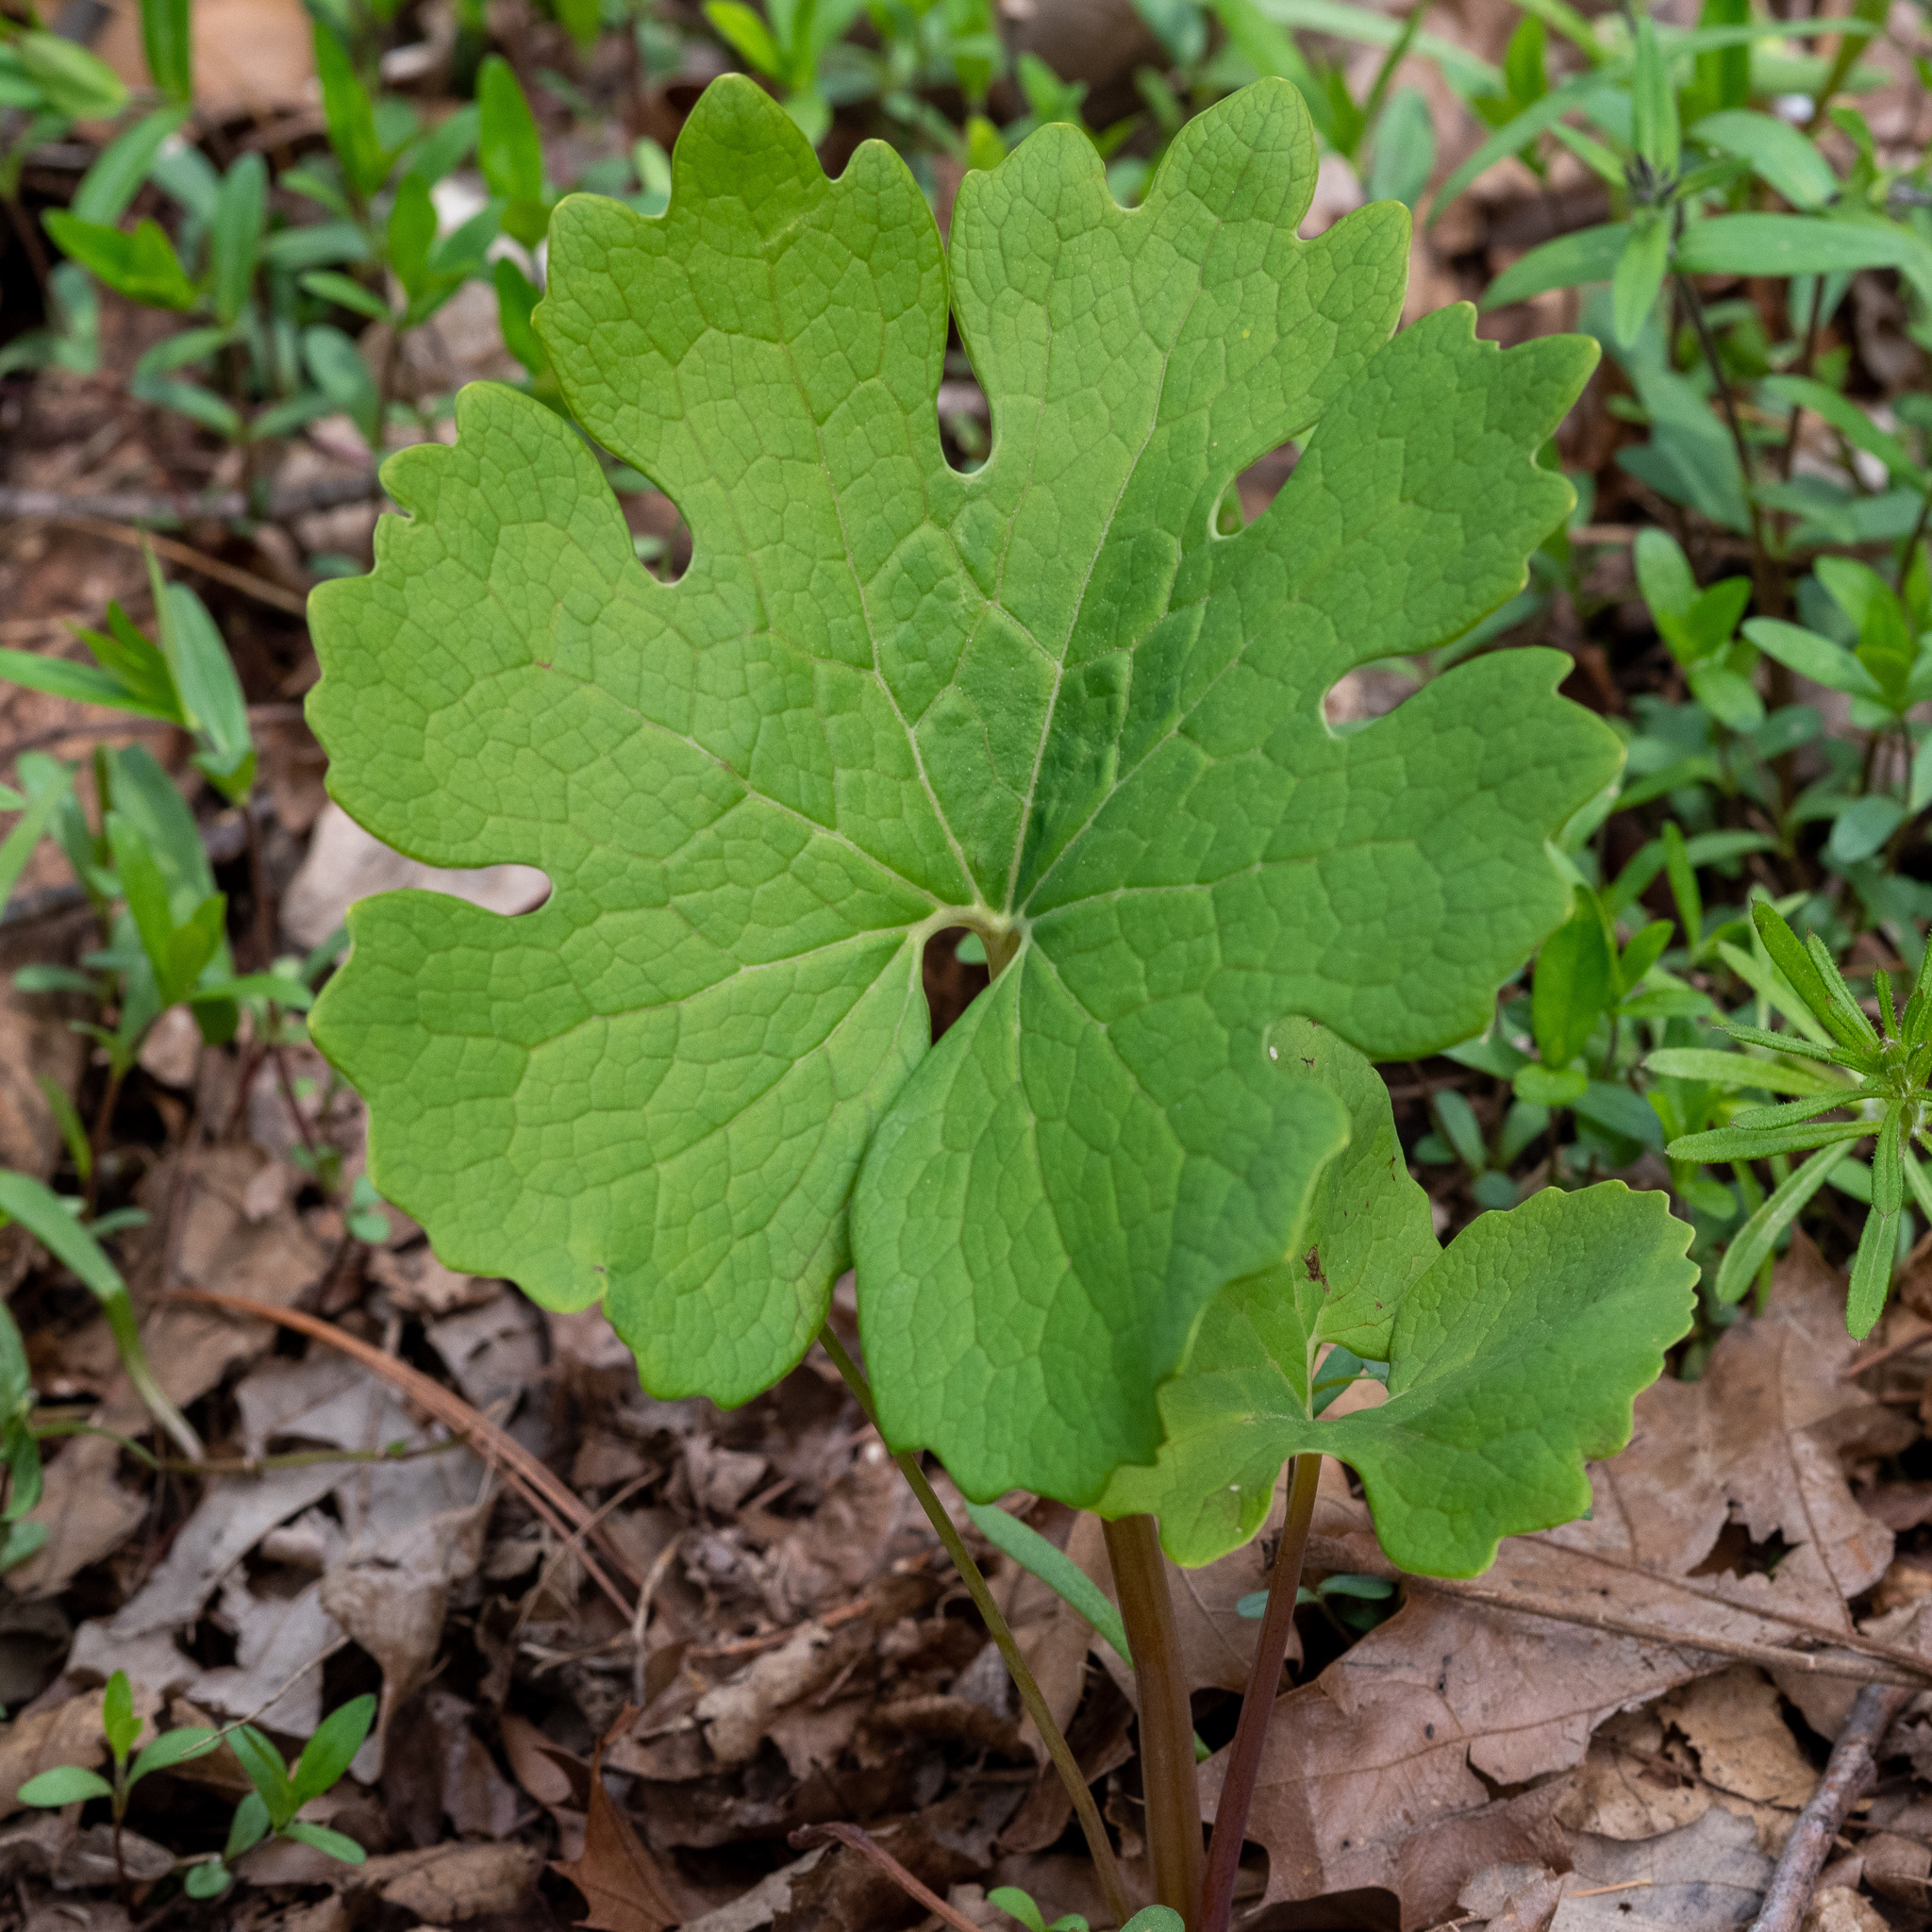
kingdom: Plantae
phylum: Tracheophyta
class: Magnoliopsida
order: Ranunculales
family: Papaveraceae
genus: Sanguinaria
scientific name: Sanguinaria canadensis
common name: Bloodroot
